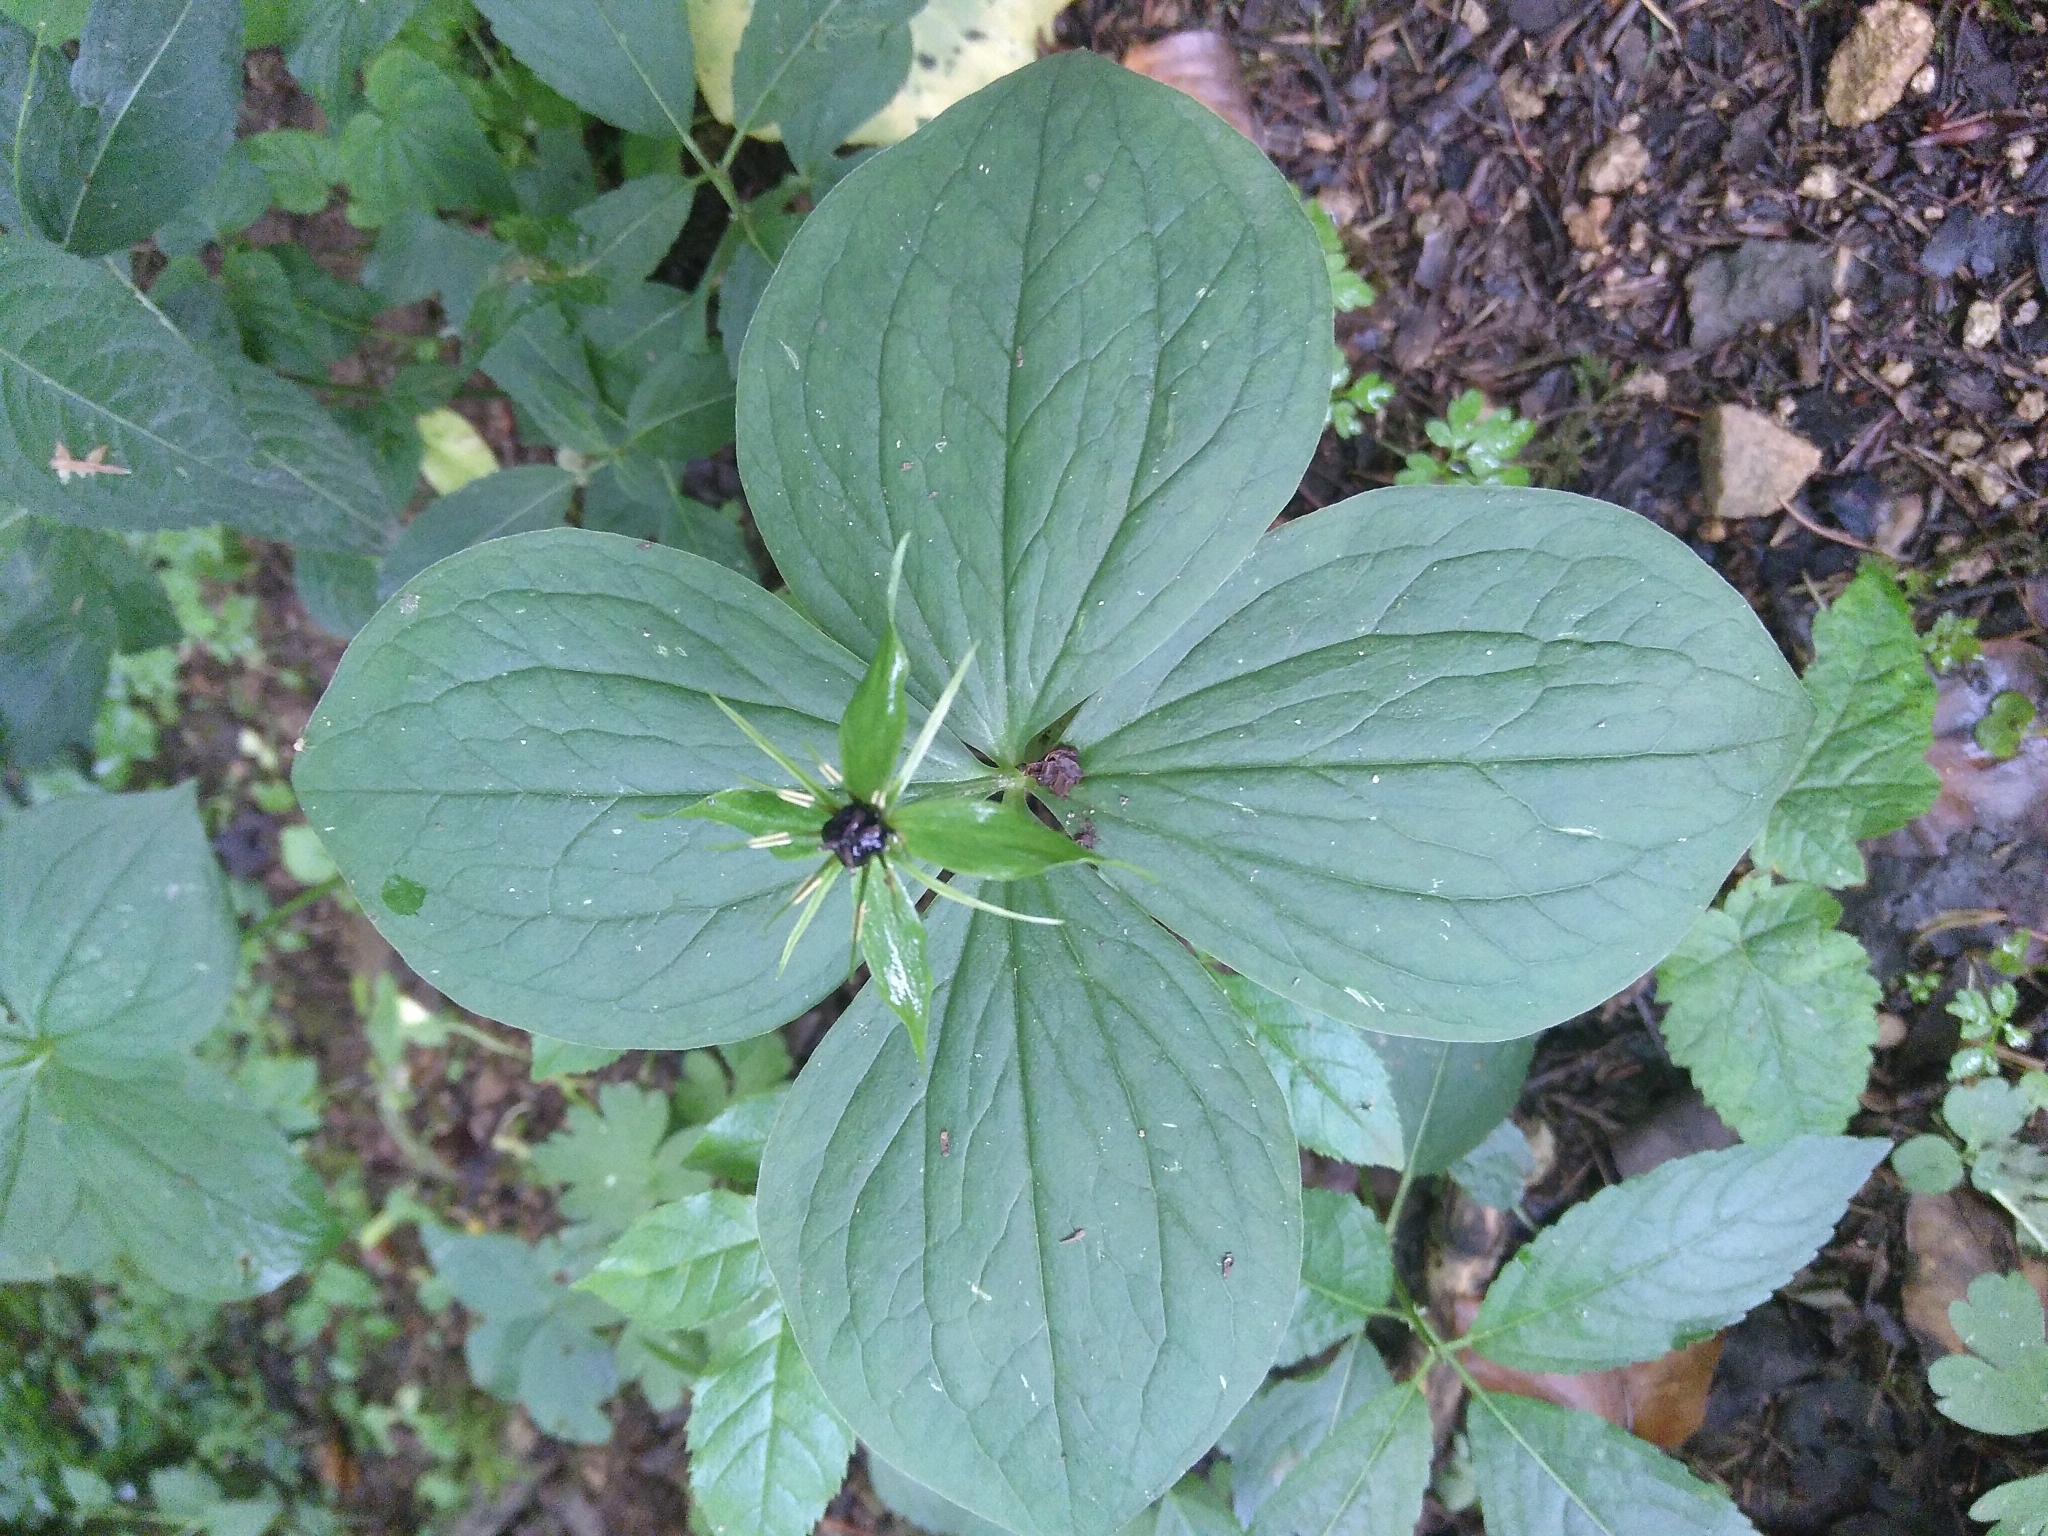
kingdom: Plantae
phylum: Tracheophyta
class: Liliopsida
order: Liliales
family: Melanthiaceae
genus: Paris
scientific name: Paris quadrifolia
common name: Herb-paris
